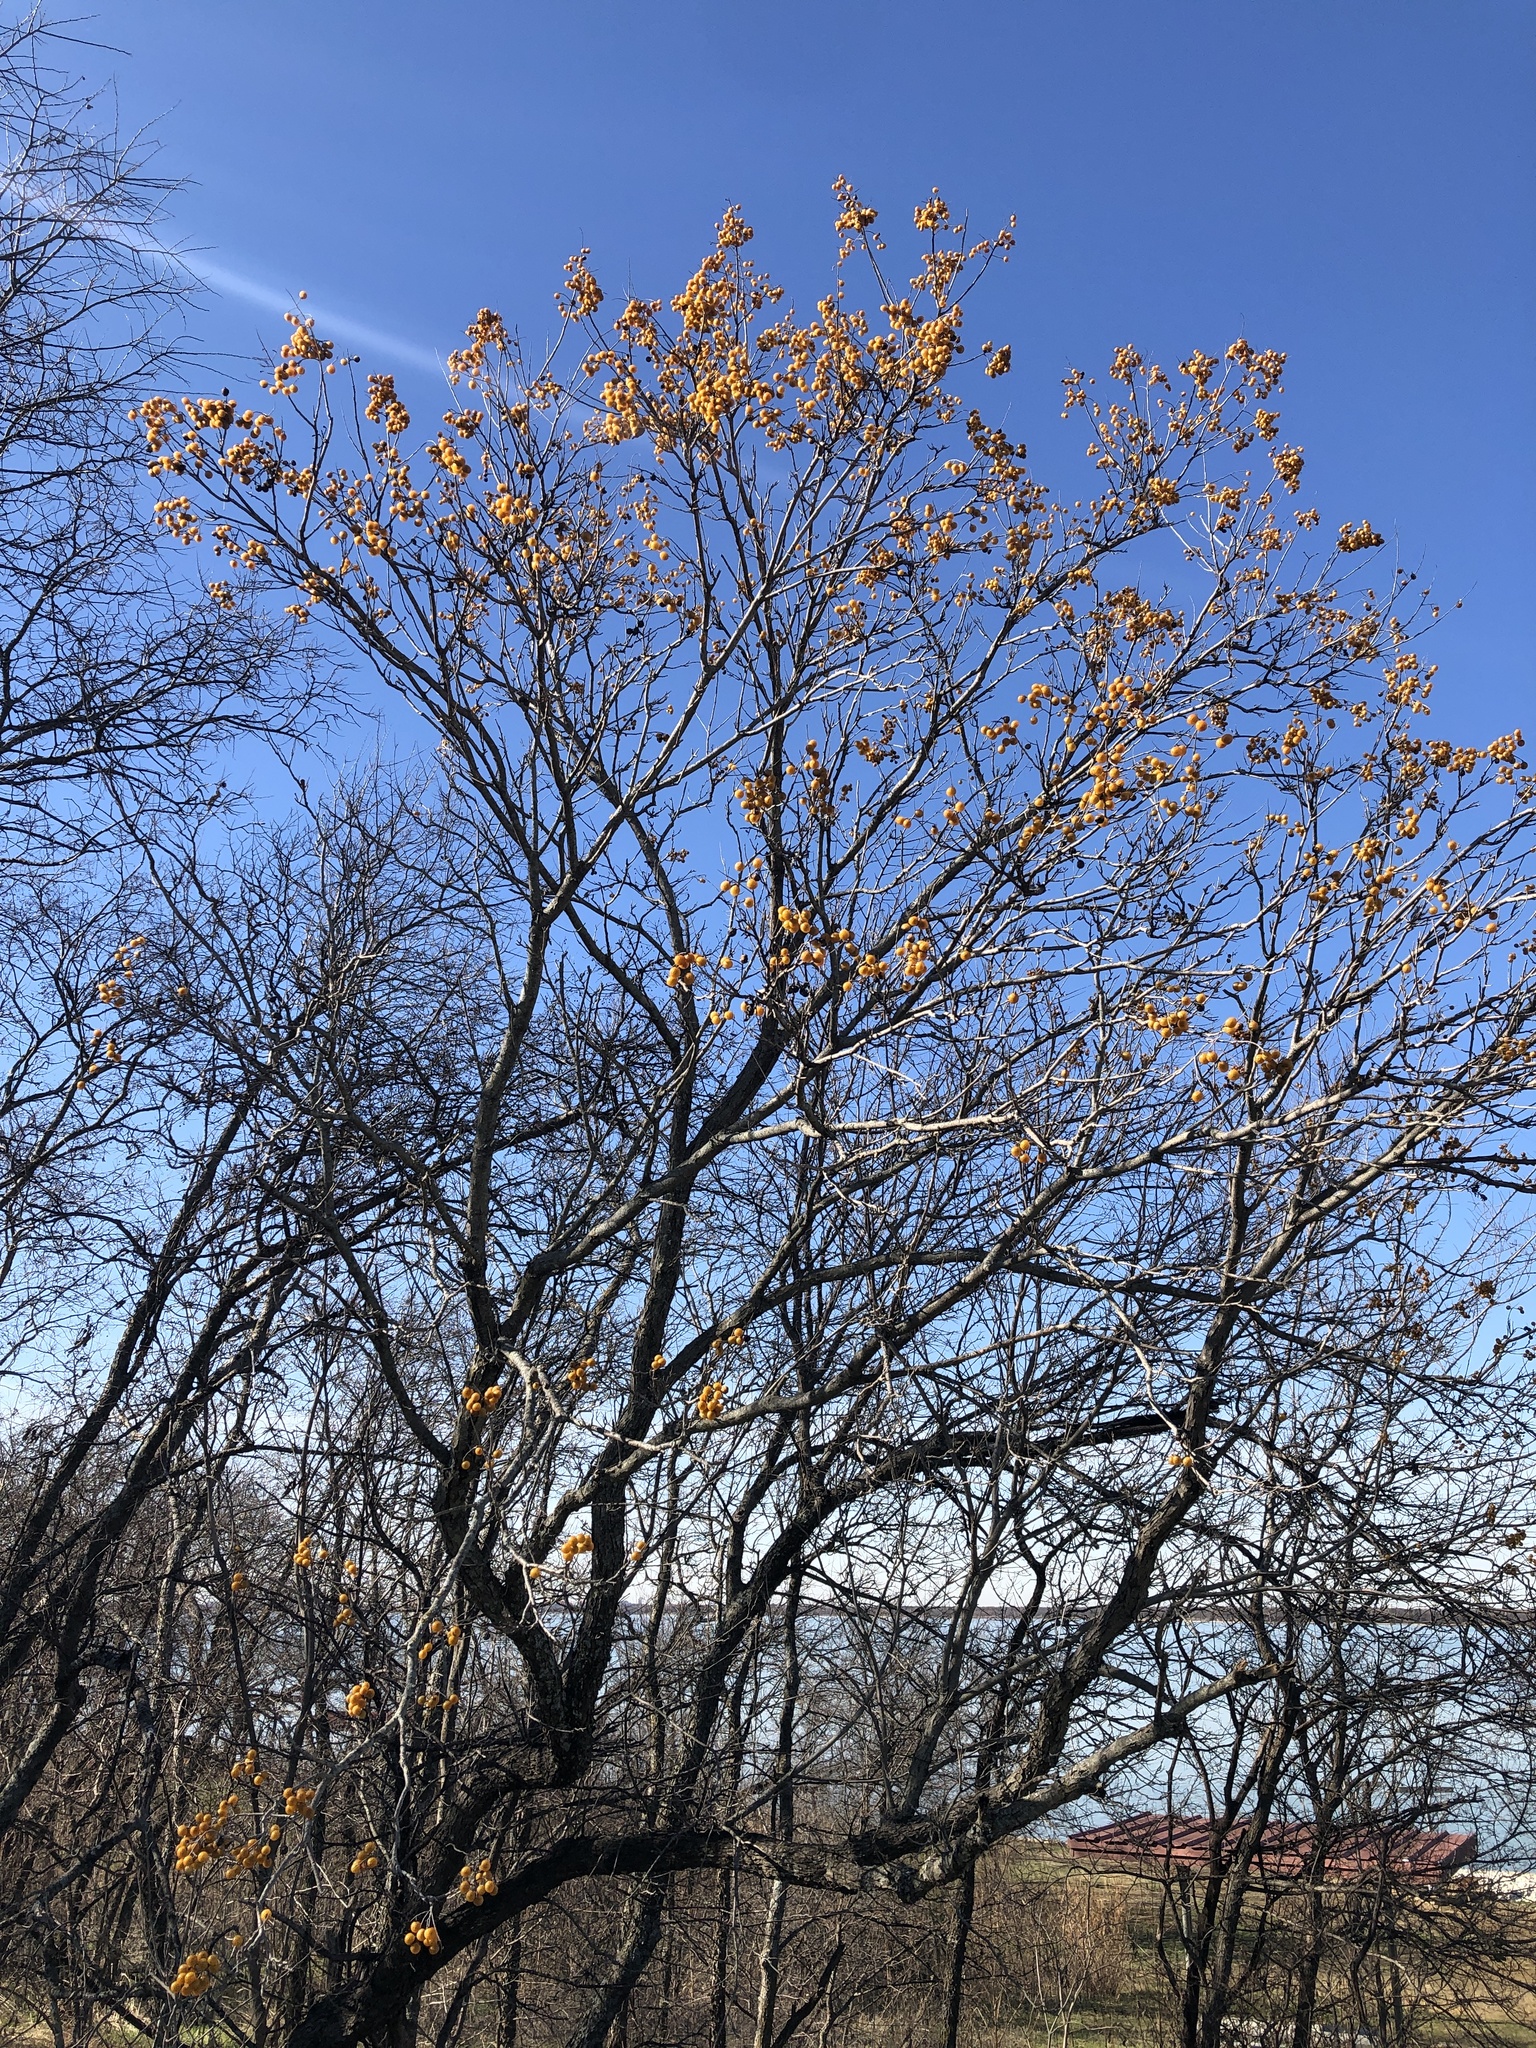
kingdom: Plantae
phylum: Tracheophyta
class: Magnoliopsida
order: Sapindales
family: Sapindaceae
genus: Sapindus
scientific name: Sapindus drummondii
